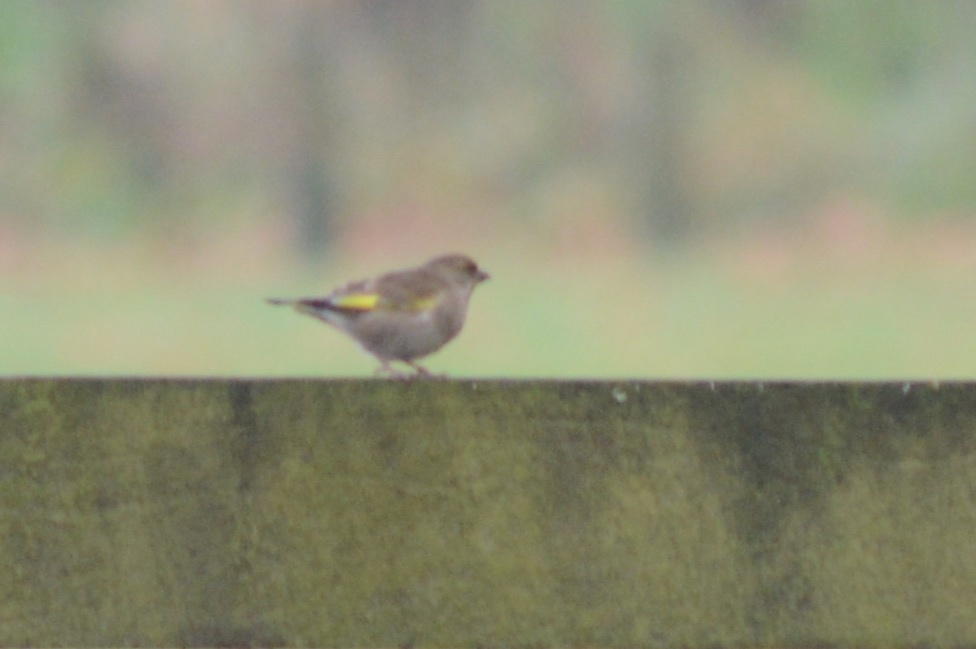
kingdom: Plantae
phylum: Tracheophyta
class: Liliopsida
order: Poales
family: Poaceae
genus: Chloris
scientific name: Chloris chloris
